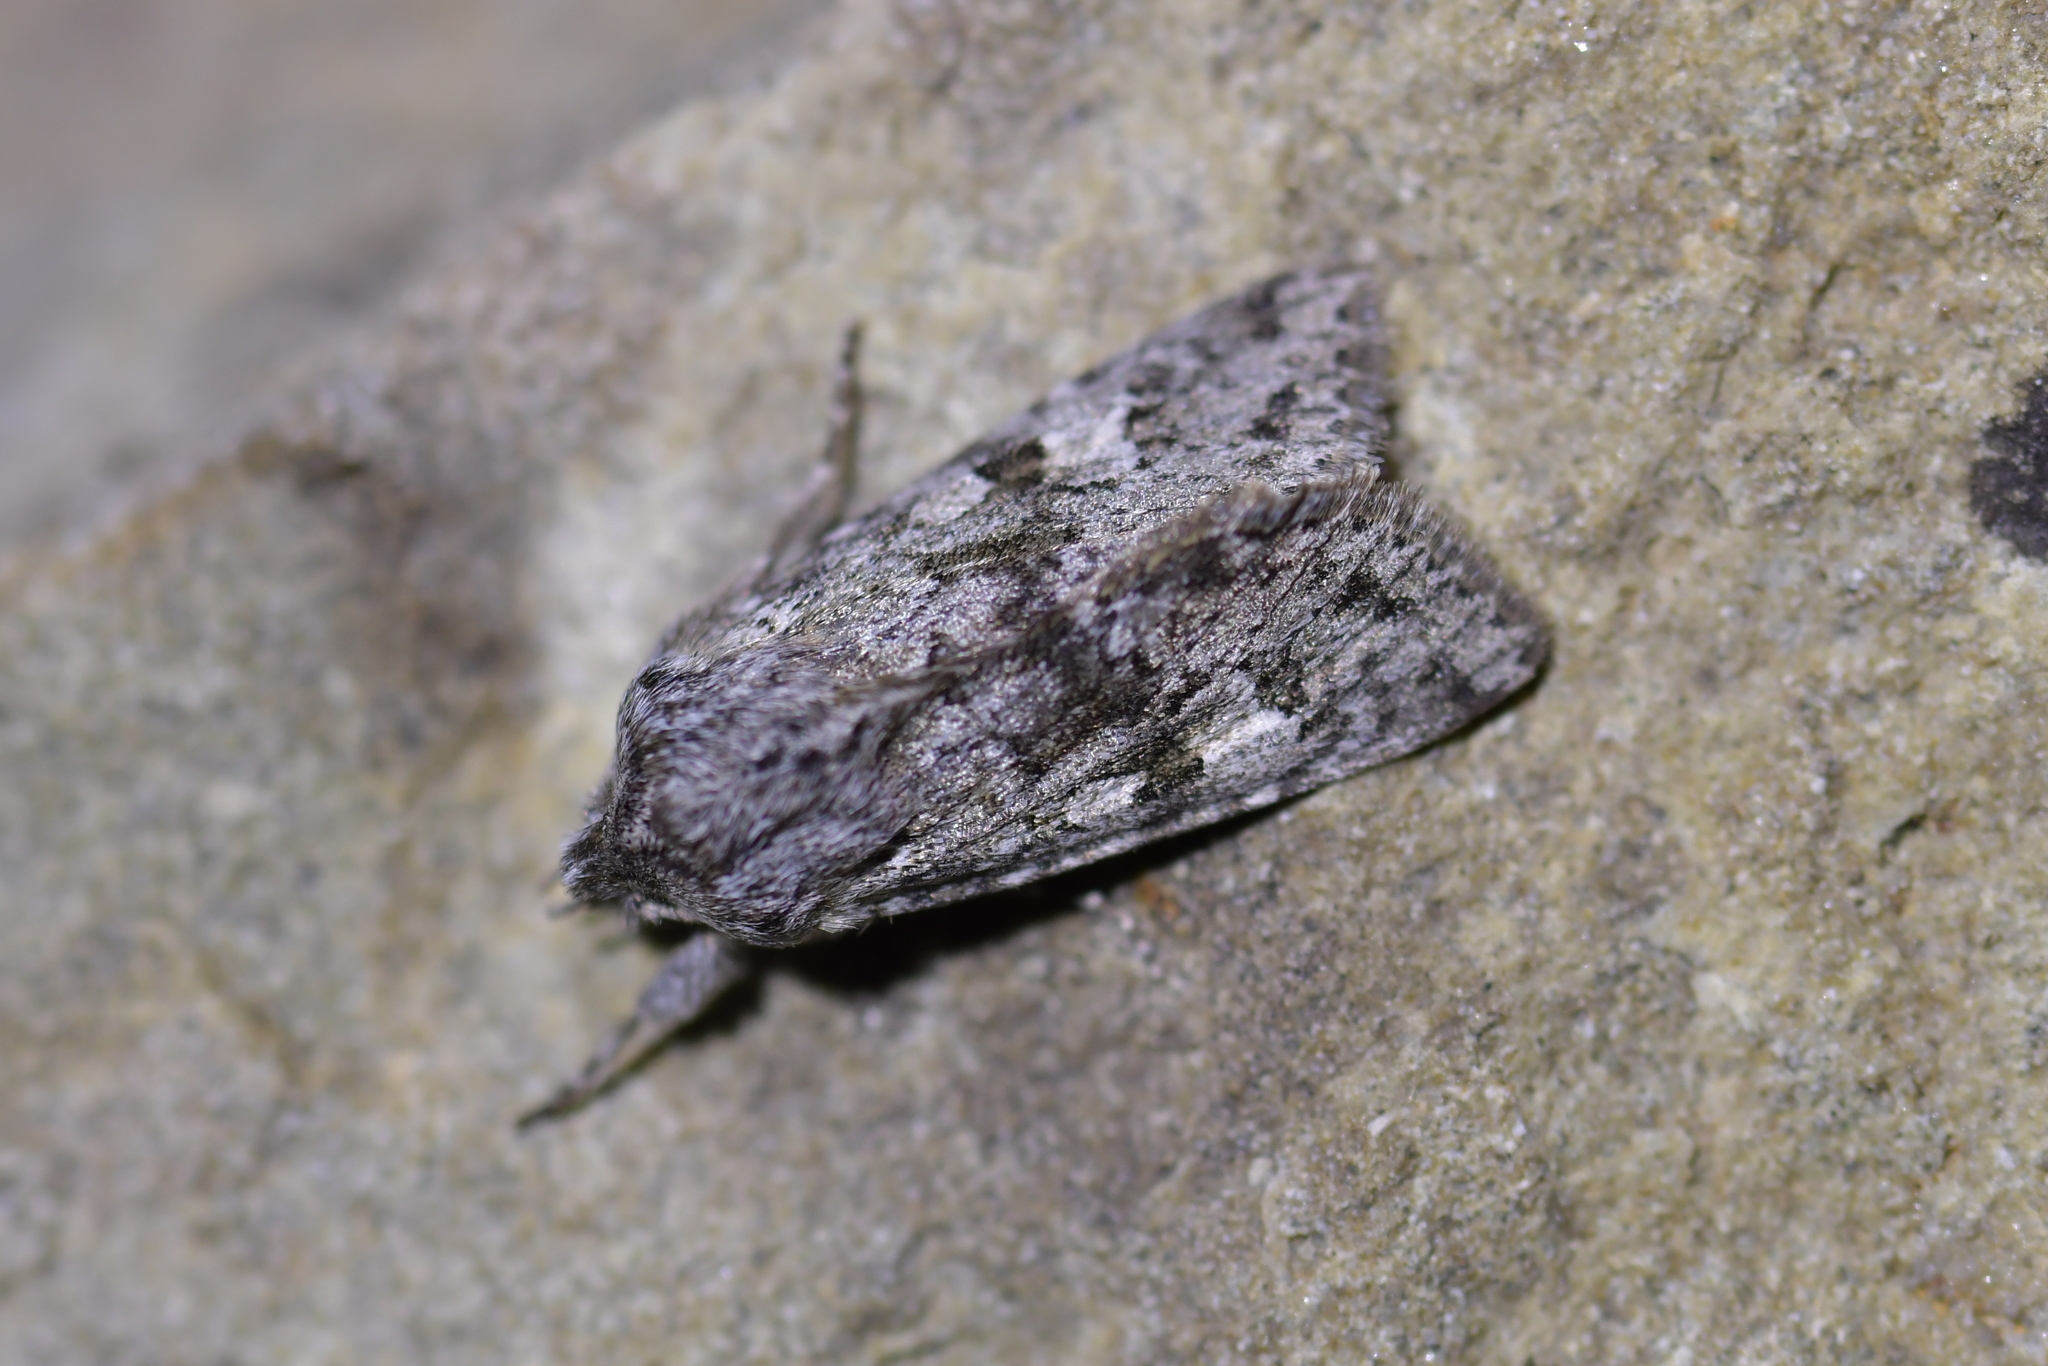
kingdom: Animalia
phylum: Arthropoda
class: Insecta
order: Lepidoptera
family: Noctuidae
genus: Physetica
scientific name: Physetica cucullina
